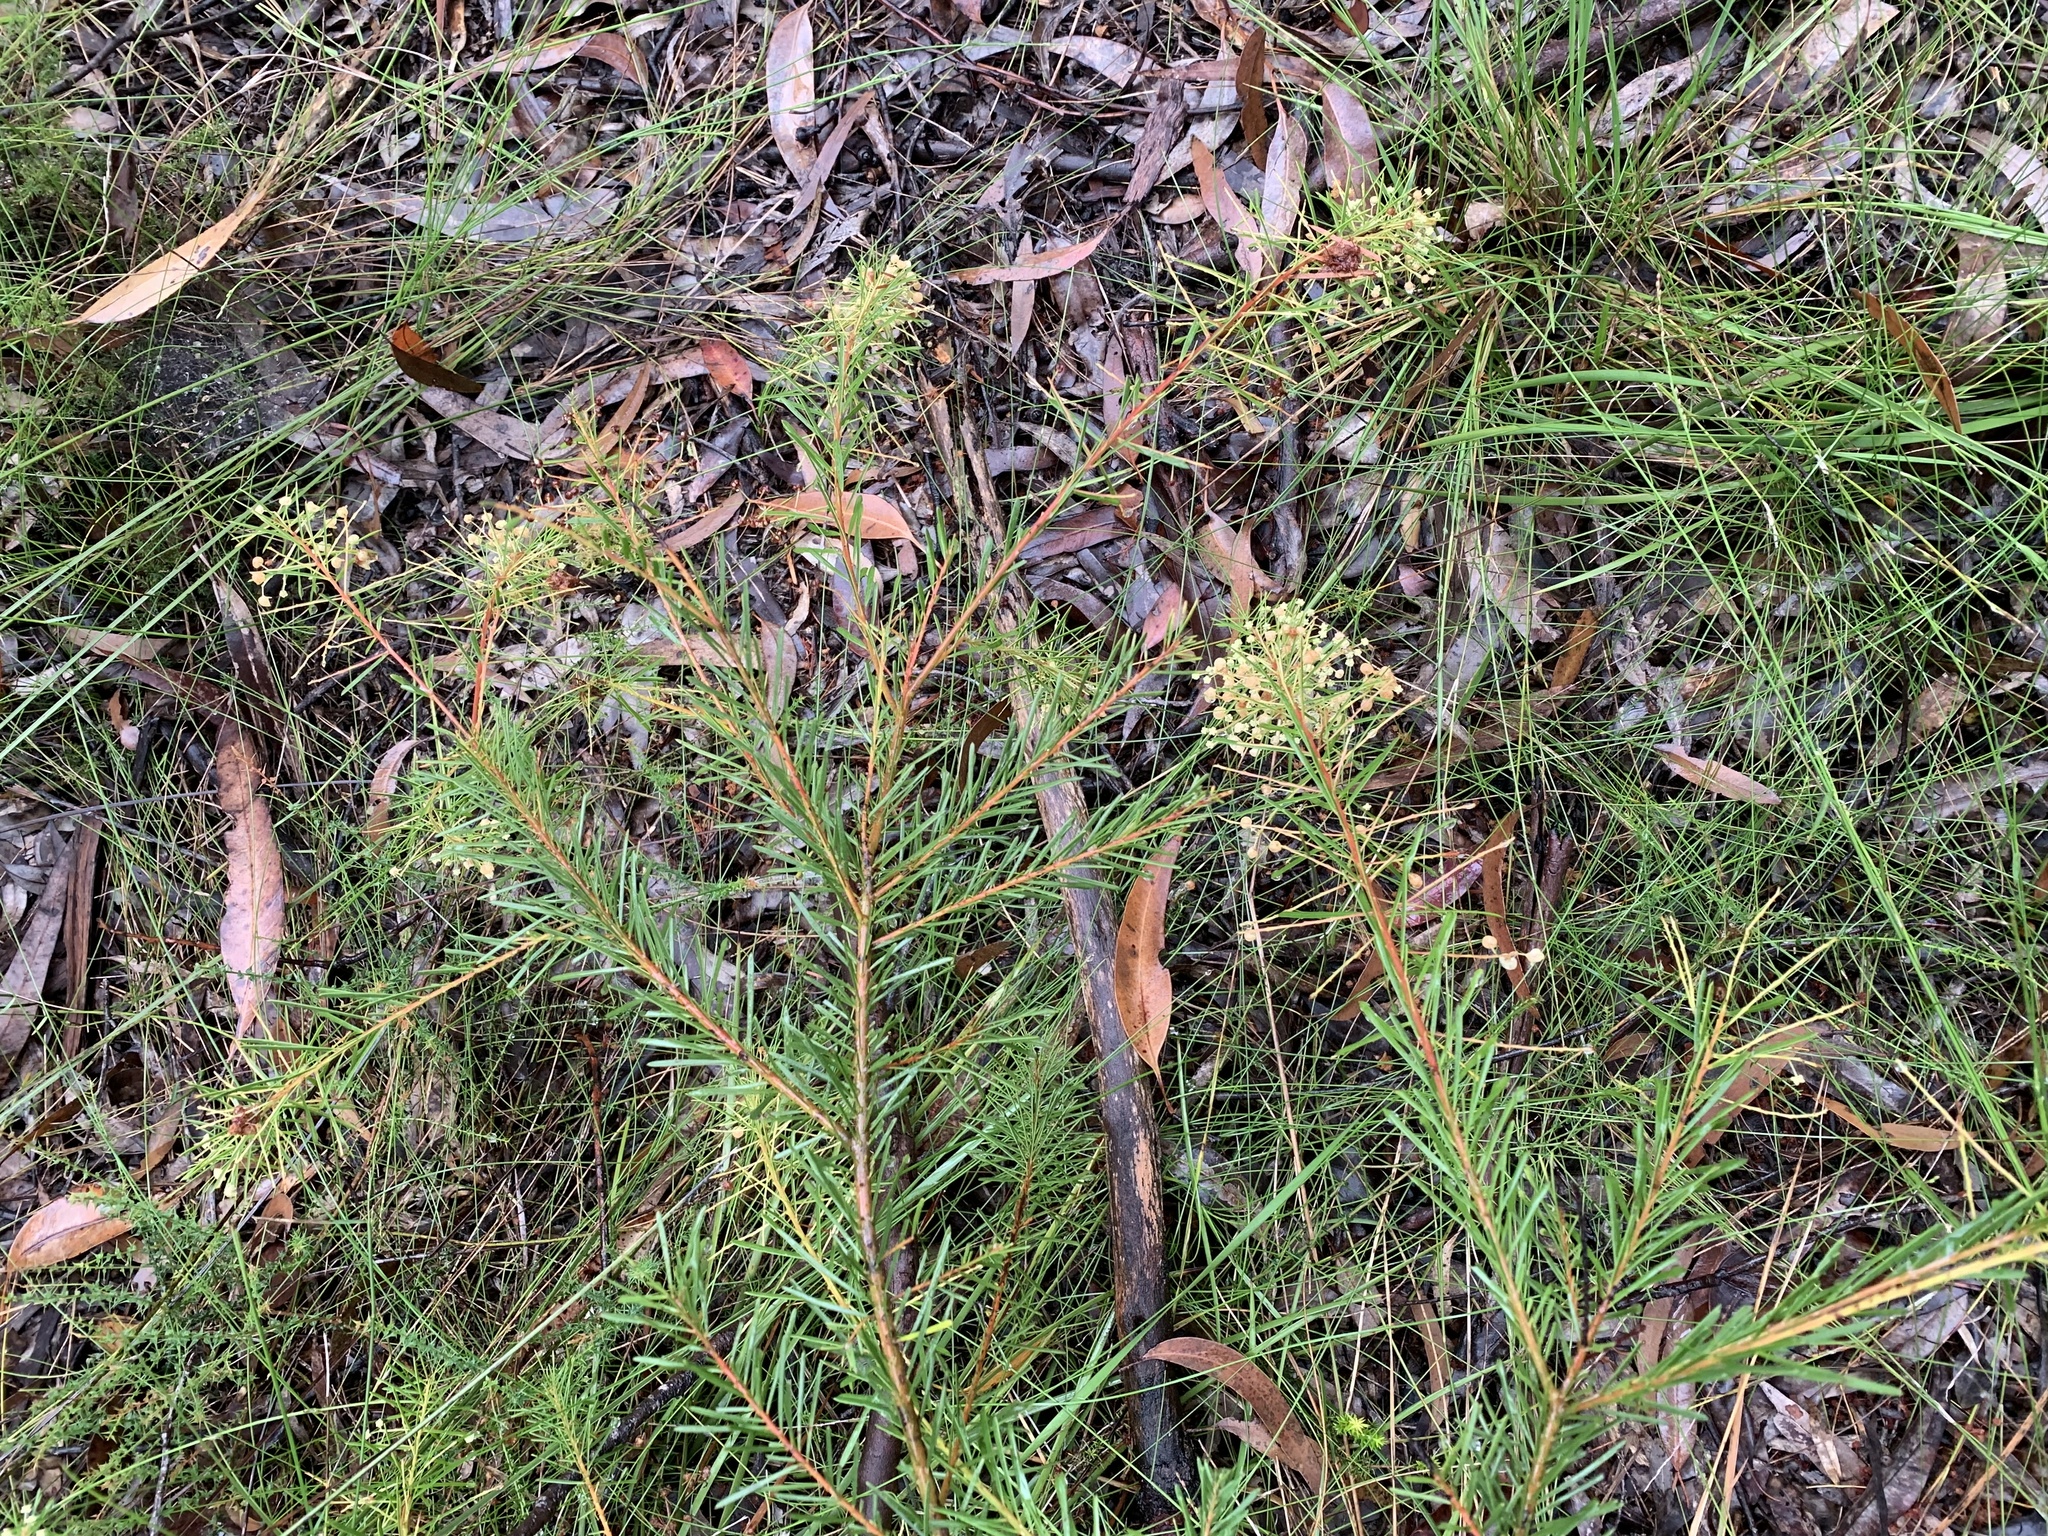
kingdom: Plantae
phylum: Tracheophyta
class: Magnoliopsida
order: Fabales
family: Fabaceae
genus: Acacia
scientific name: Acacia linifolia
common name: White wattle
